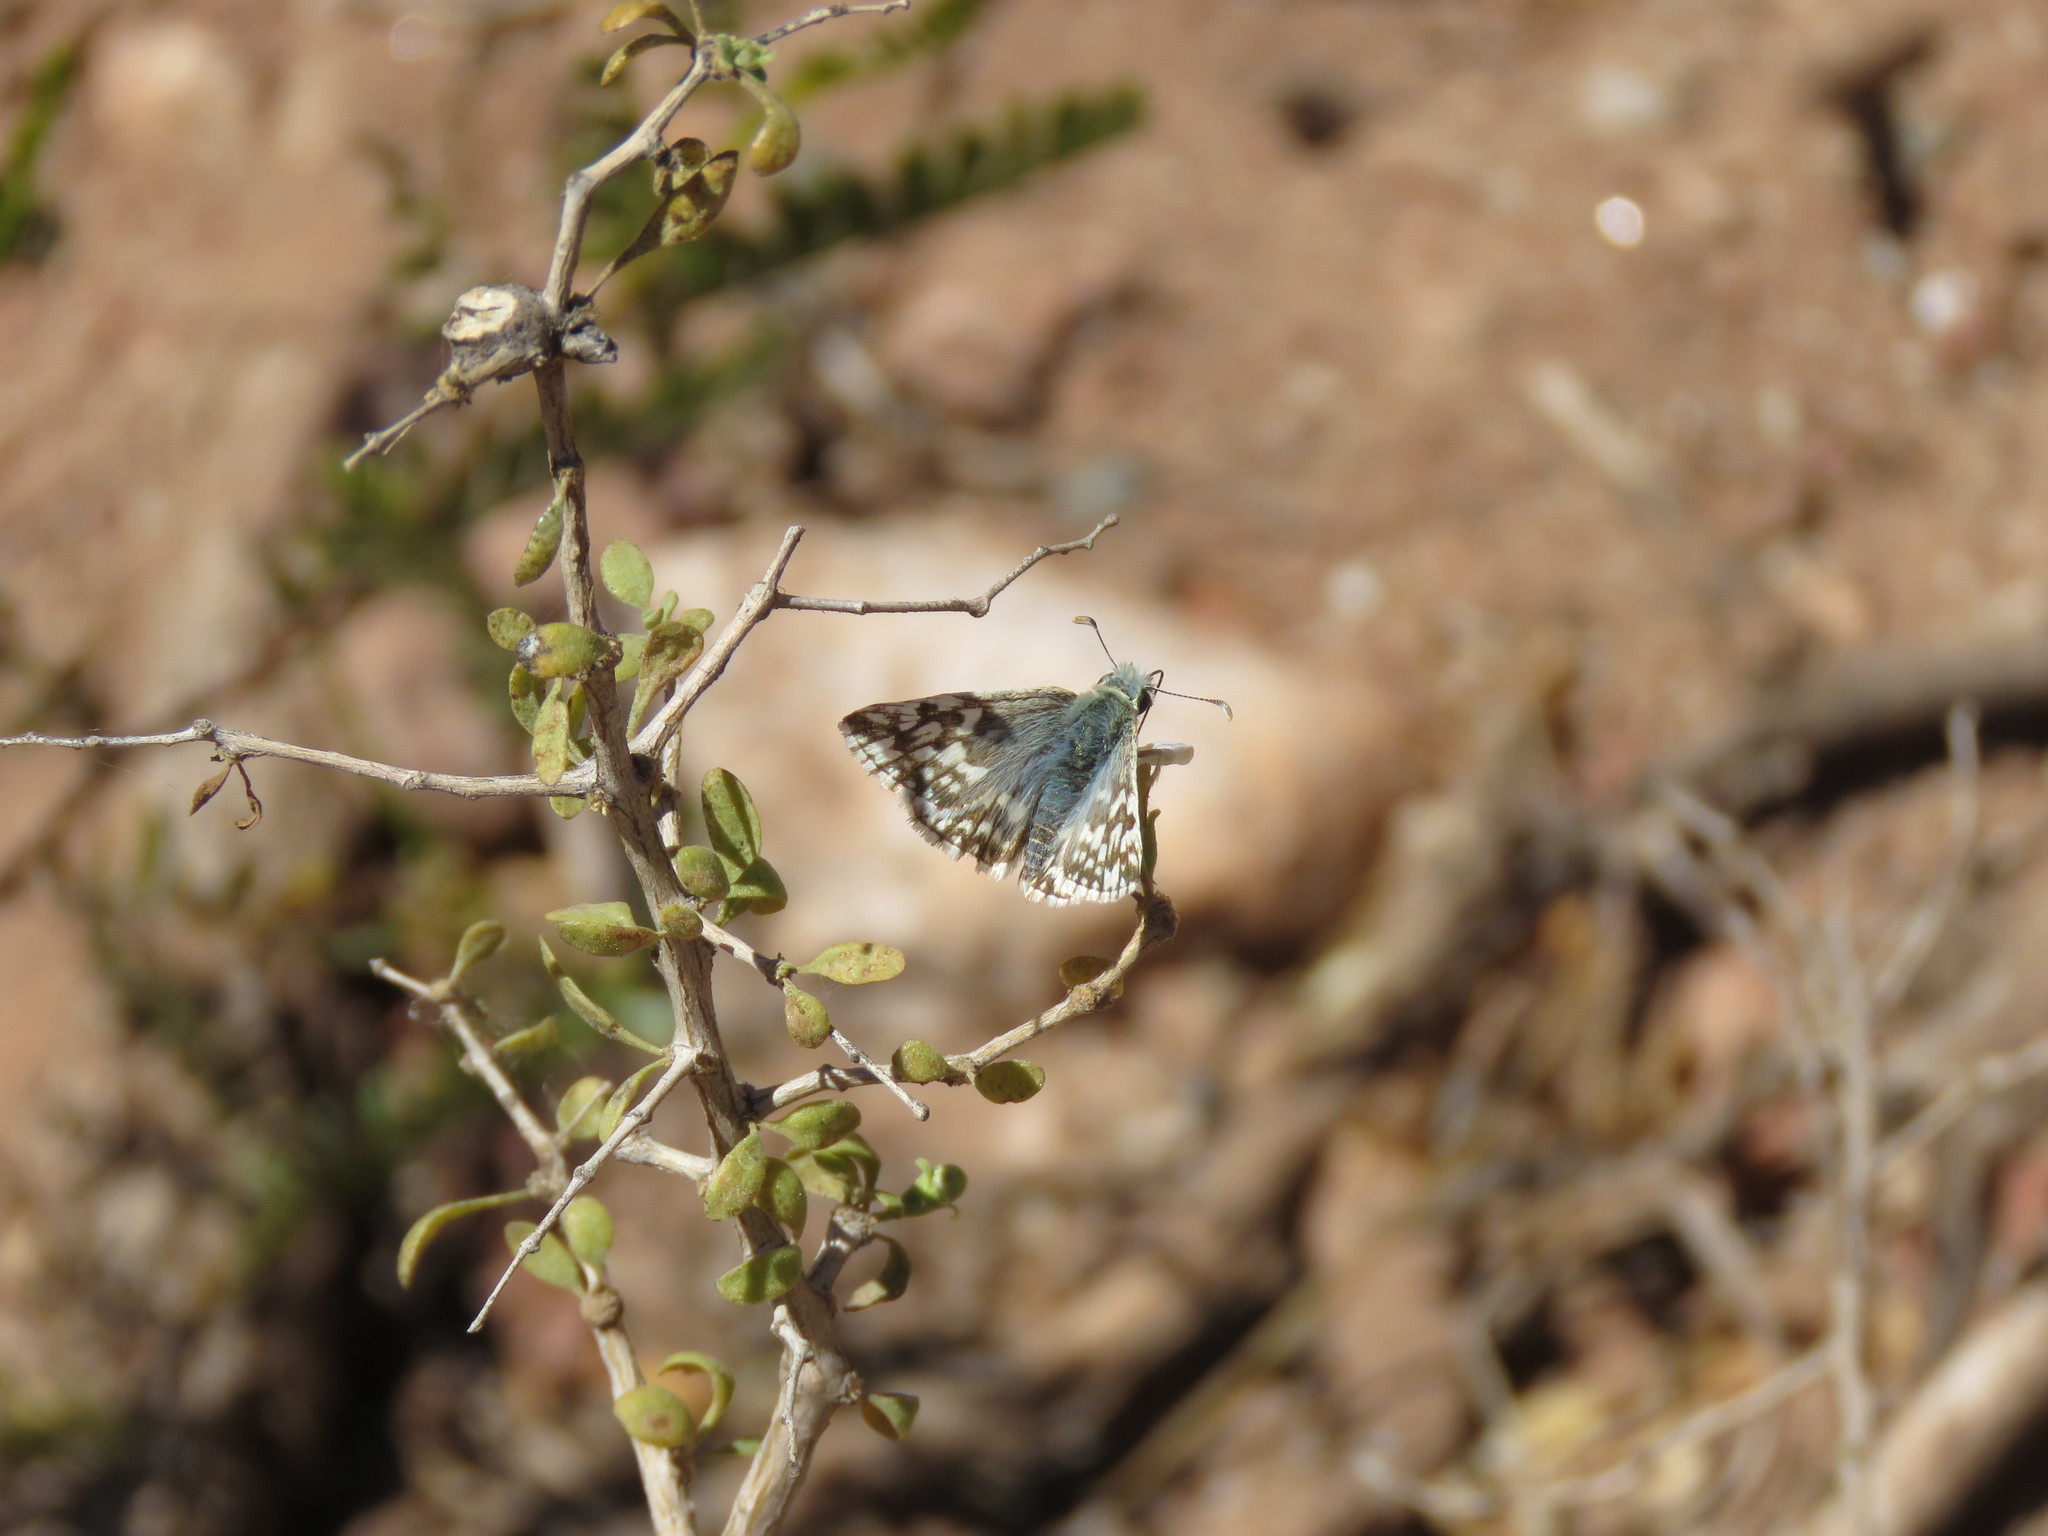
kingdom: Animalia
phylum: Arthropoda
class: Insecta
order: Lepidoptera
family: Hesperiidae
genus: Heliopetes
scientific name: Heliopetes americanus
